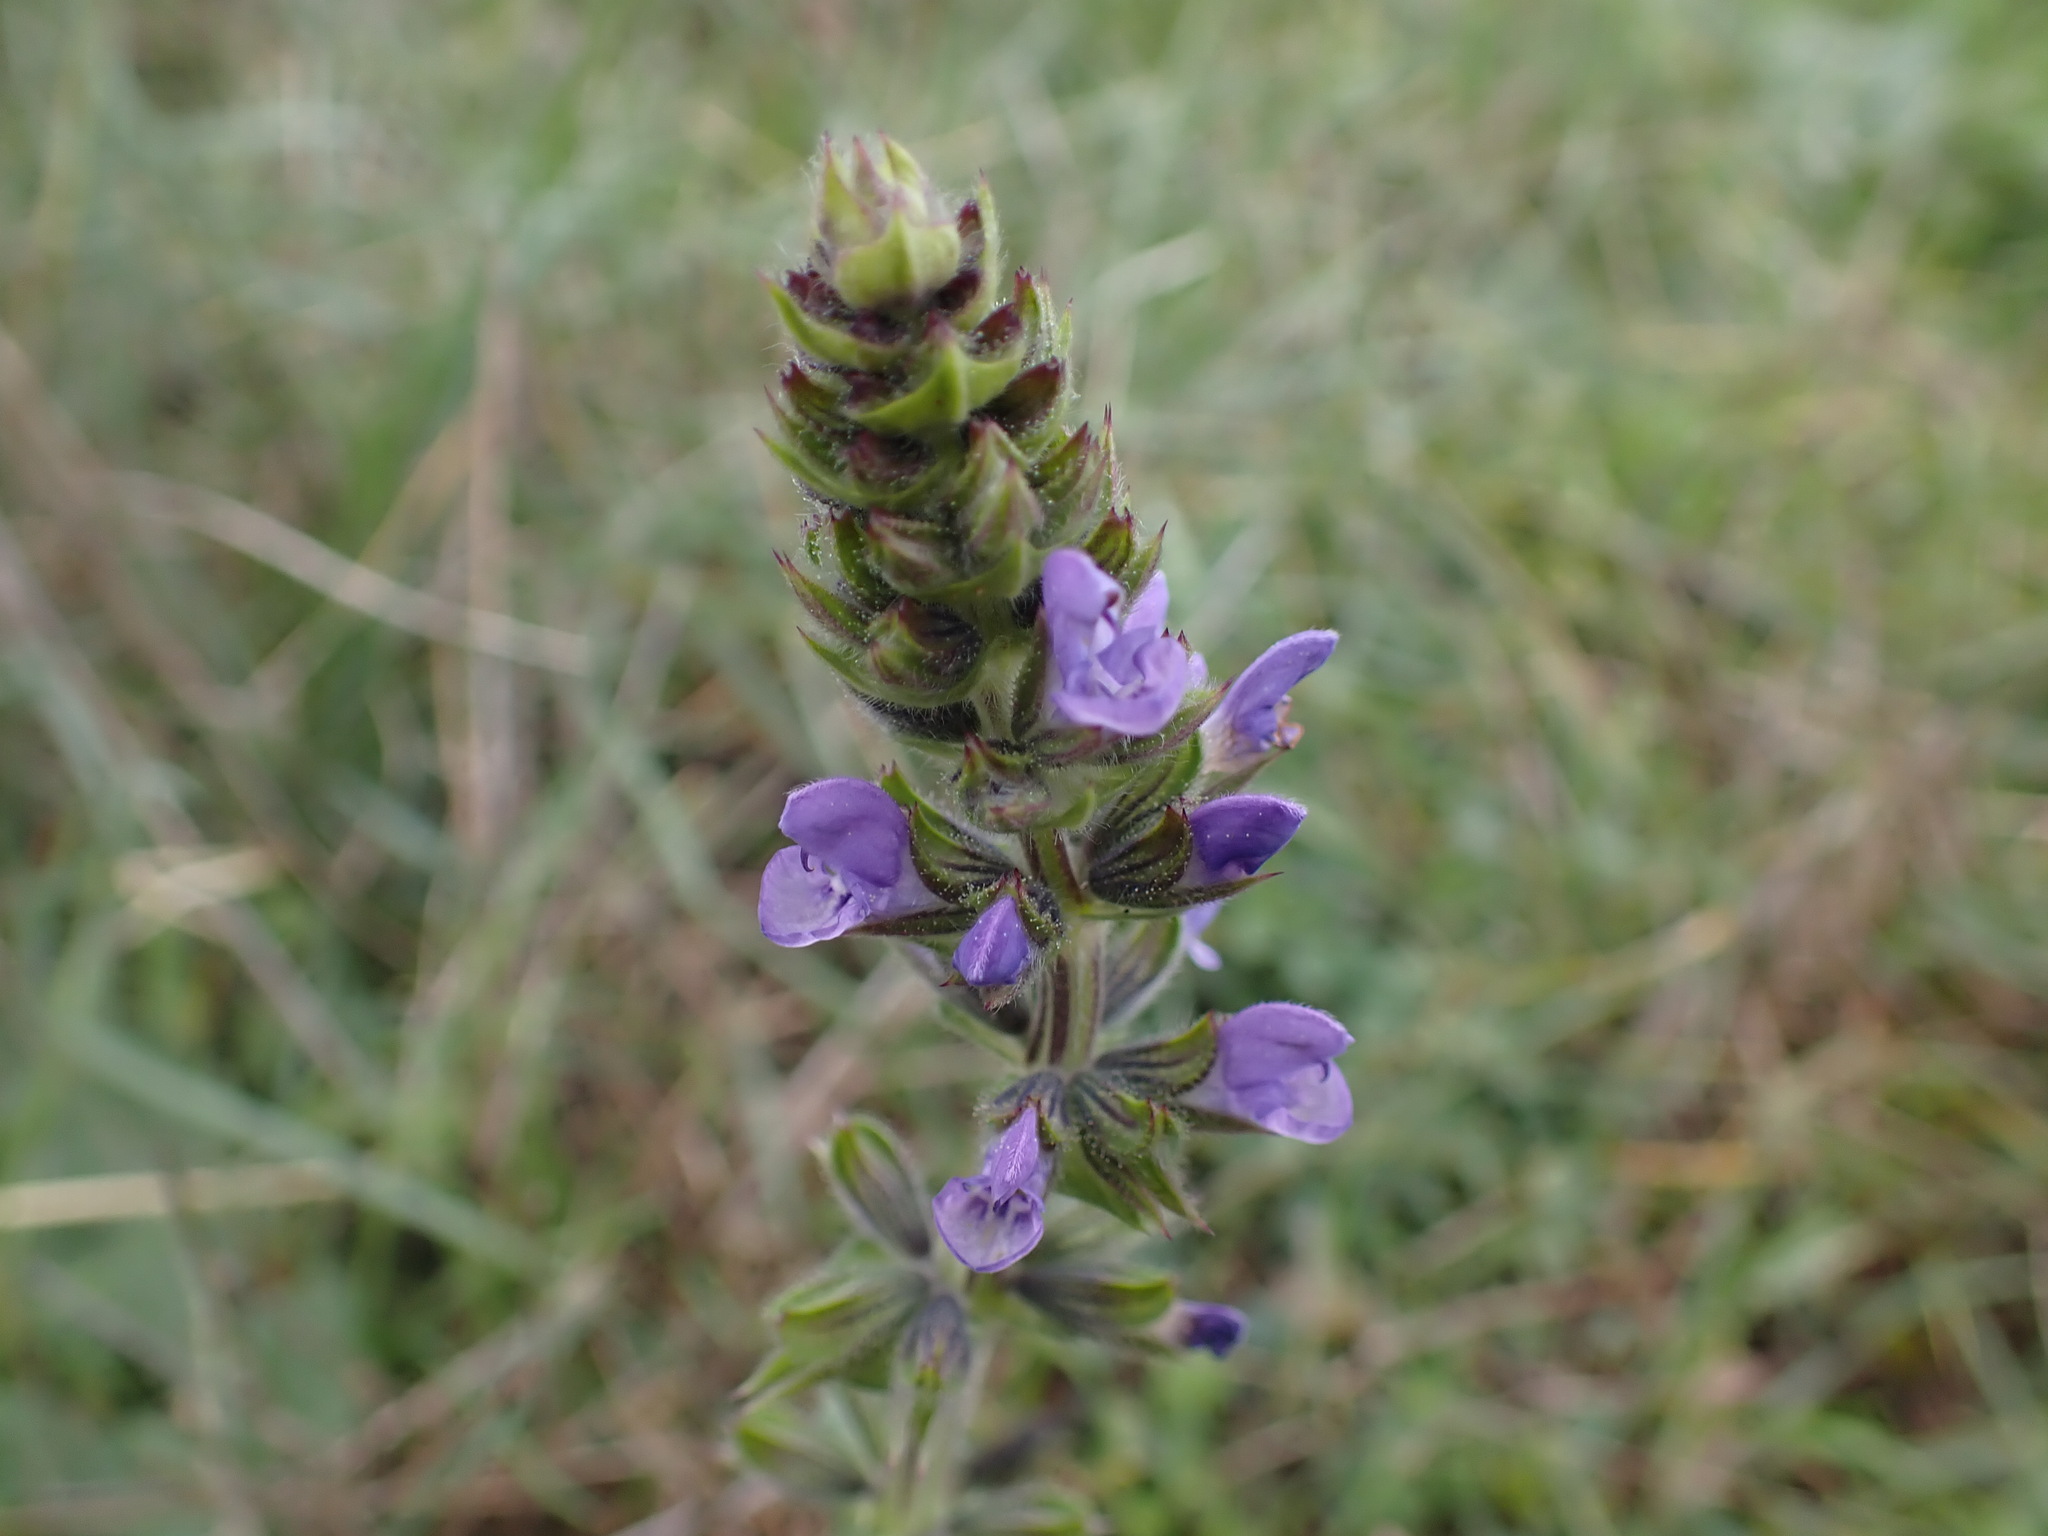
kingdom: Plantae
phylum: Tracheophyta
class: Magnoliopsida
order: Lamiales
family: Lamiaceae
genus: Salvia
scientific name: Salvia verbenaca
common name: Wild clary
